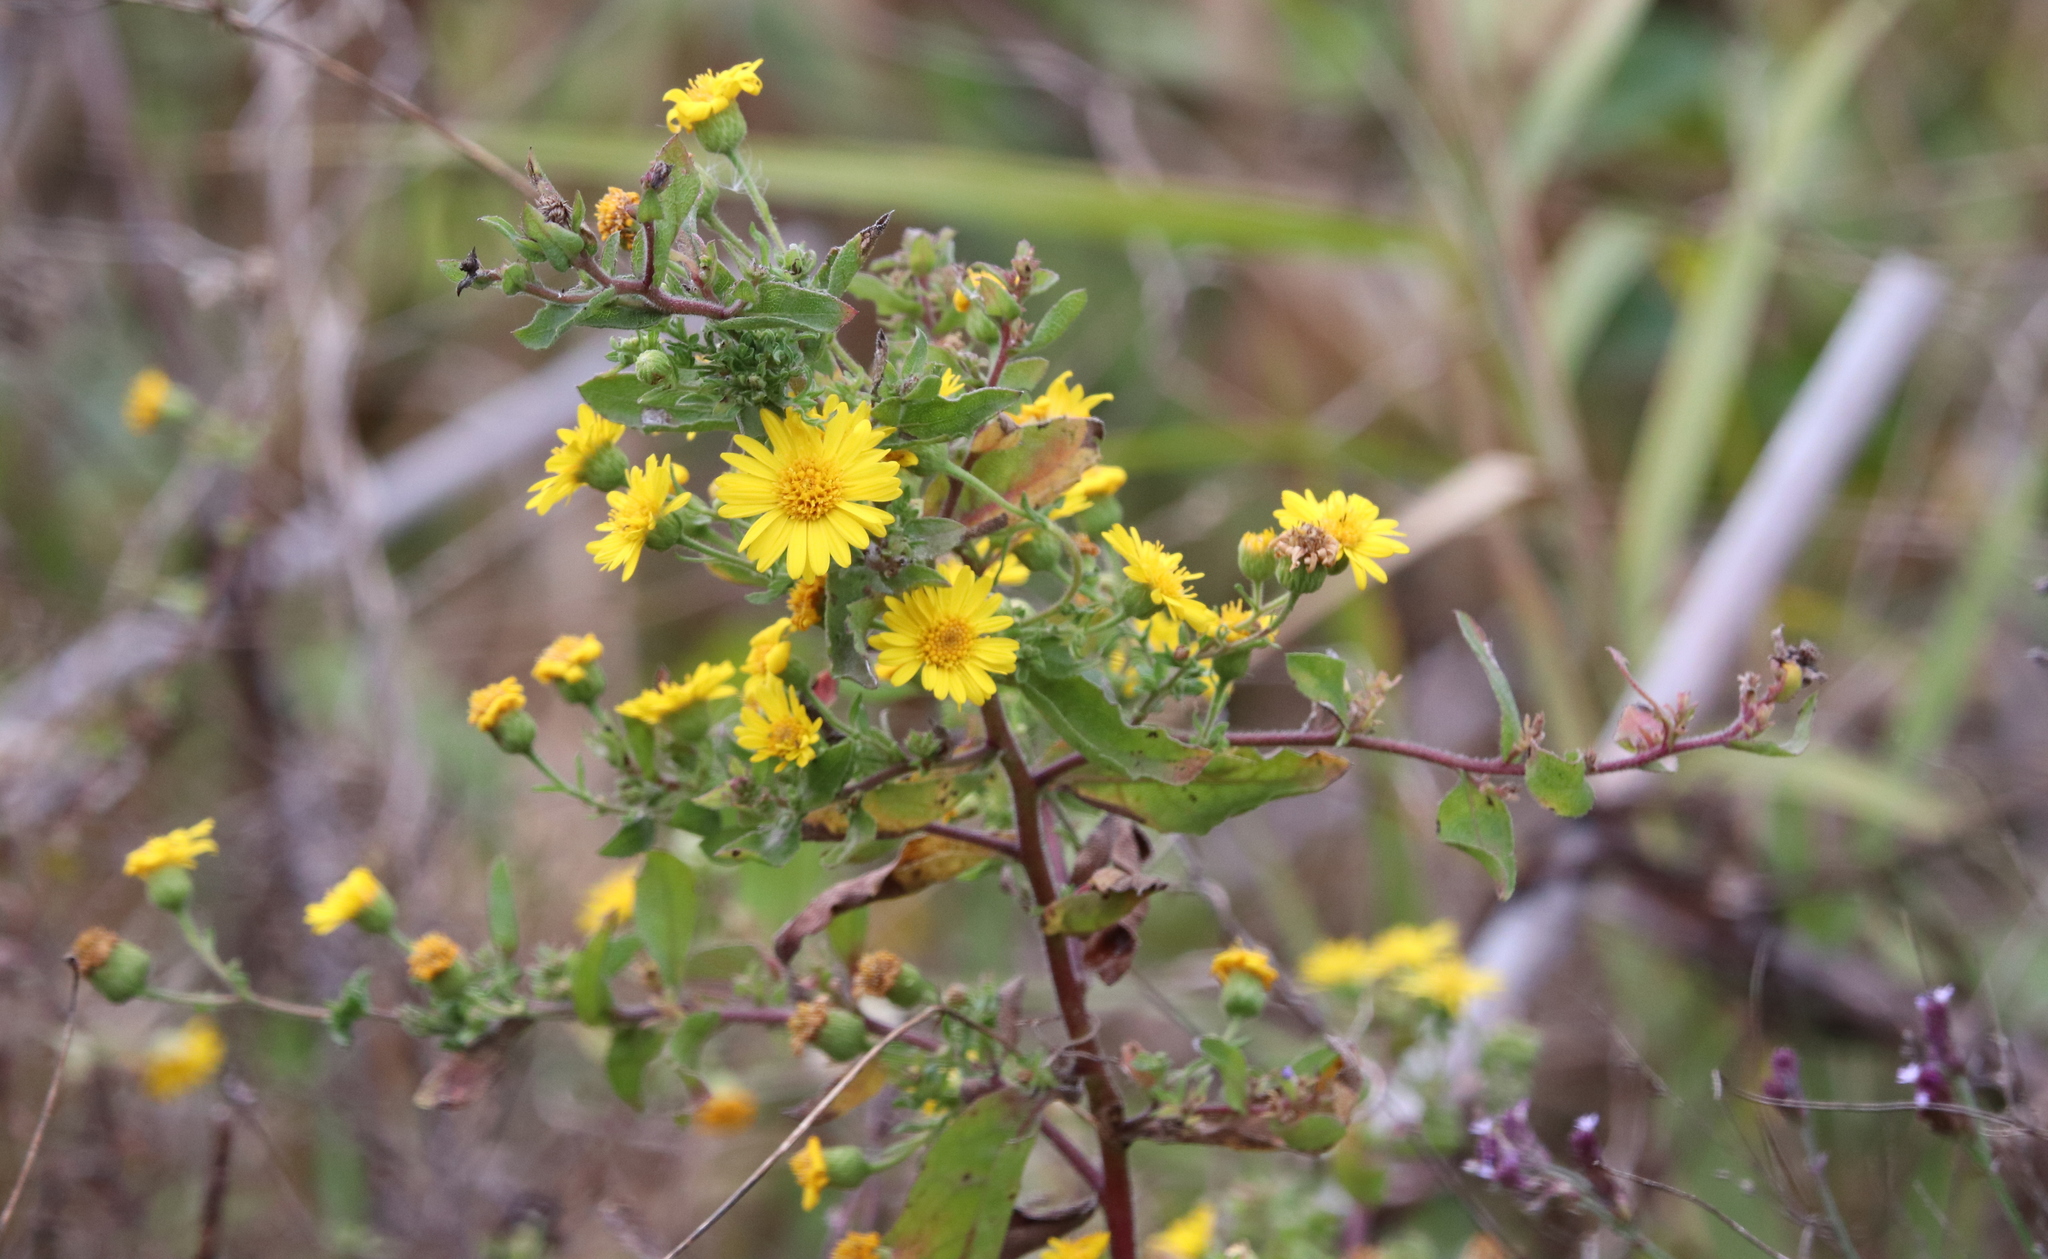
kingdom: Plantae
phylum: Tracheophyta
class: Magnoliopsida
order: Asterales
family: Asteraceae
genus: Heterotheca
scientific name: Heterotheca subaxillaris
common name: Camphorweed
